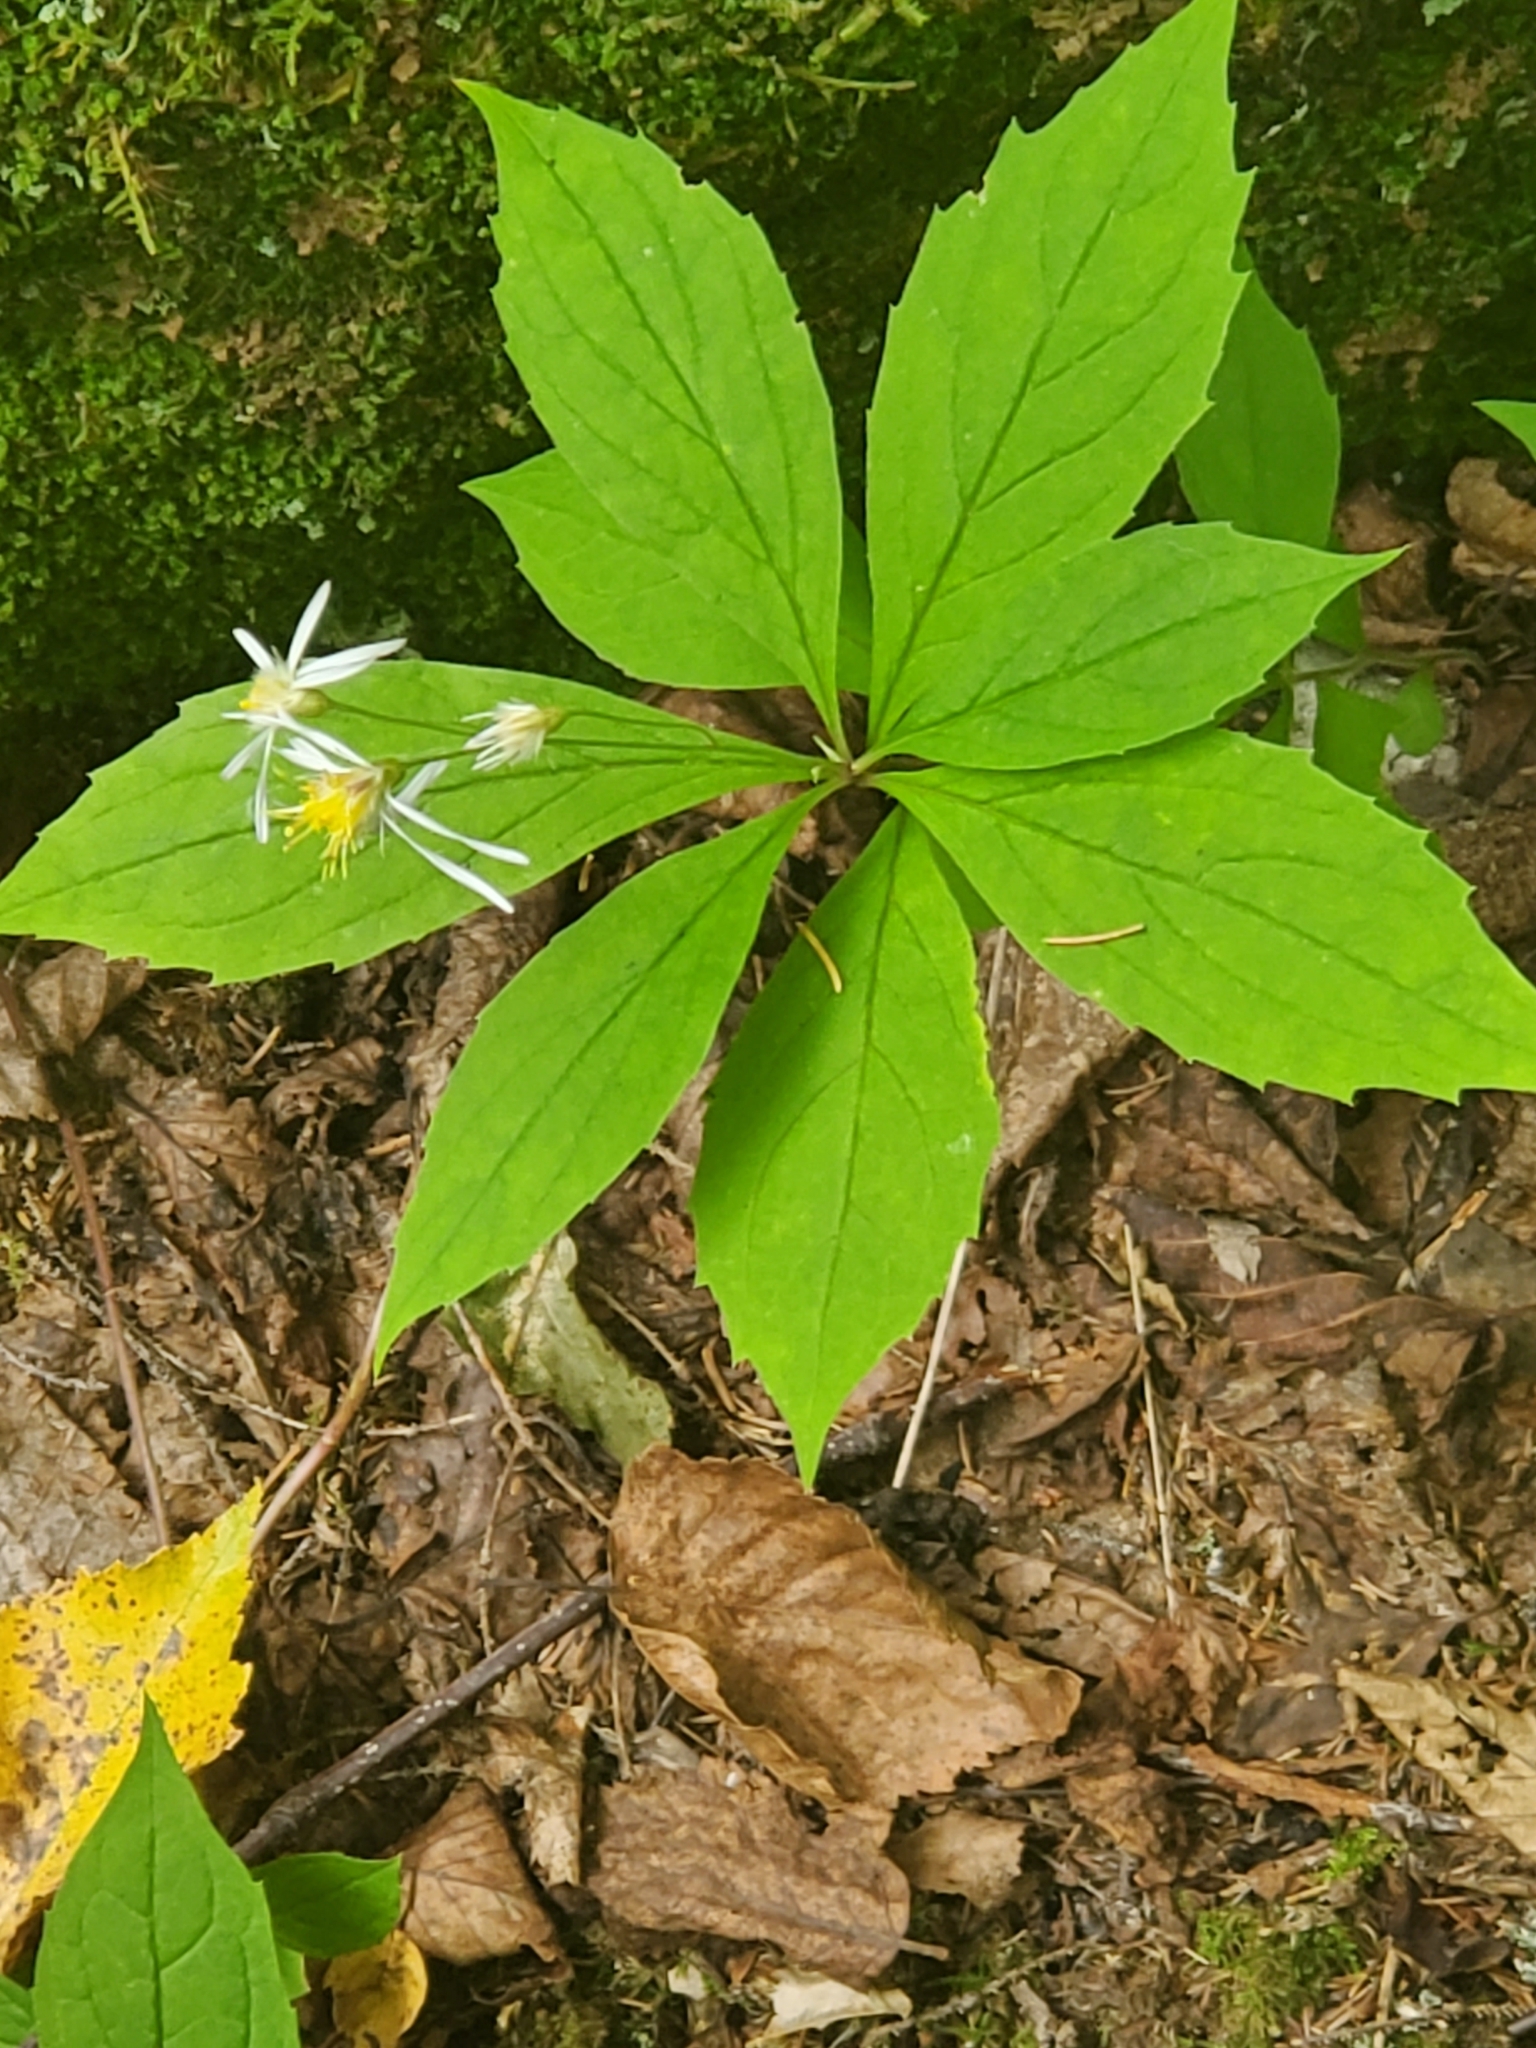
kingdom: Plantae
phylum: Tracheophyta
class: Magnoliopsida
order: Asterales
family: Asteraceae
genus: Oclemena
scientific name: Oclemena acuminata
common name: Mountain aster
